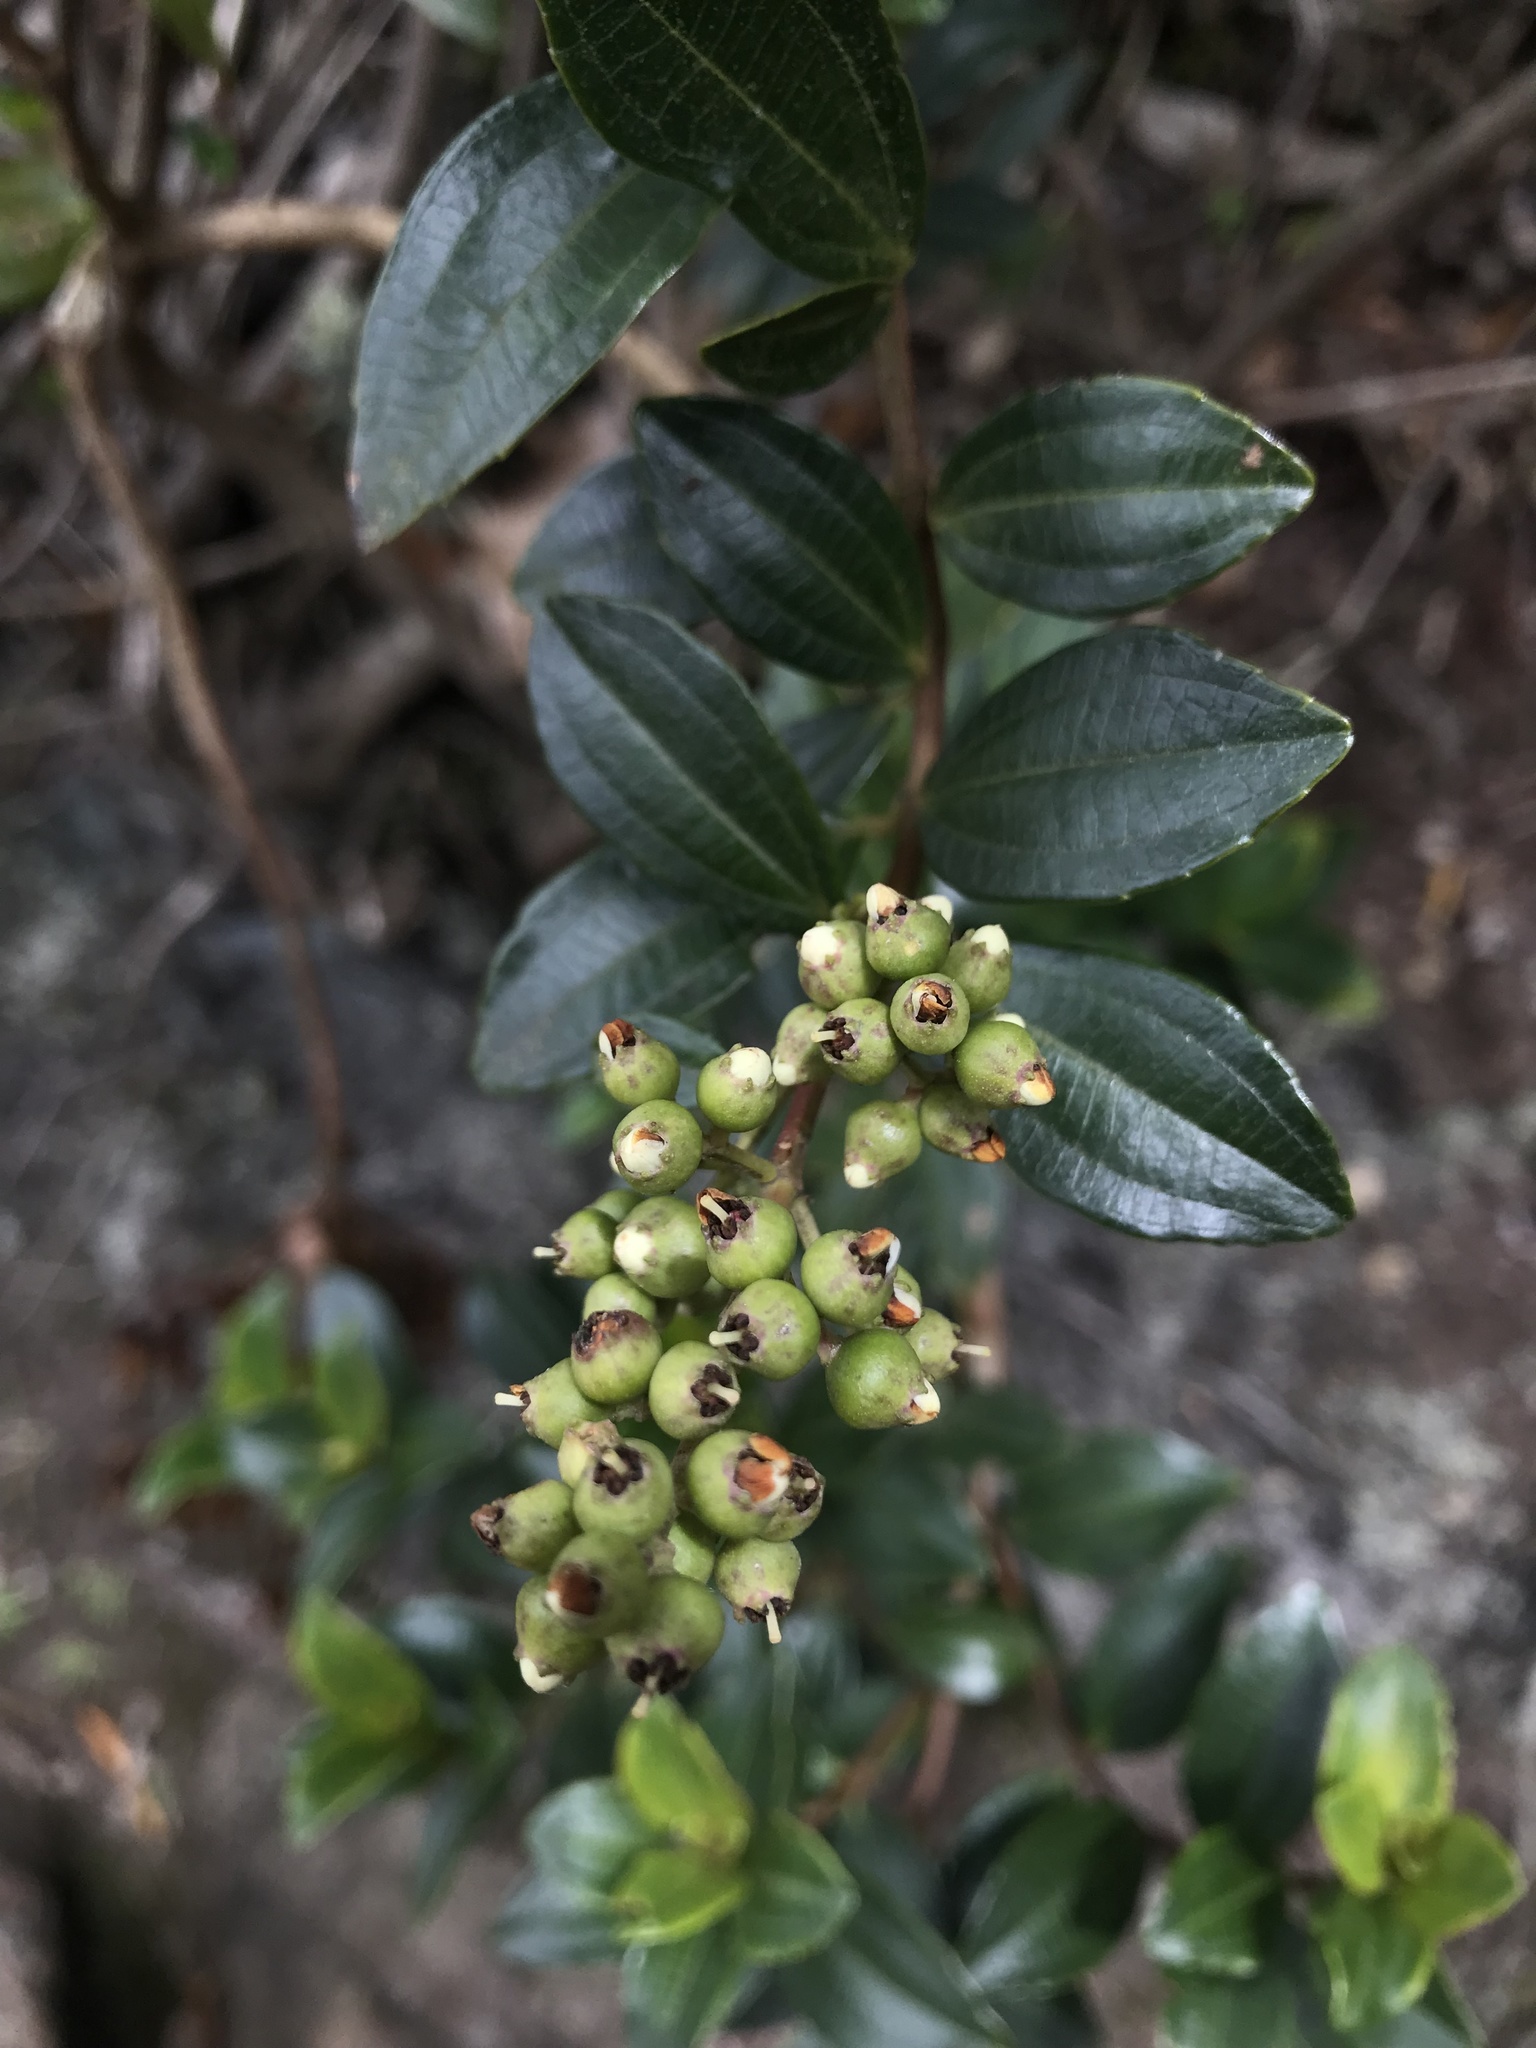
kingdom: Plantae
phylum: Tracheophyta
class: Magnoliopsida
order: Myrtales
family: Melastomataceae
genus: Miconia
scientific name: Miconia ligustrina
